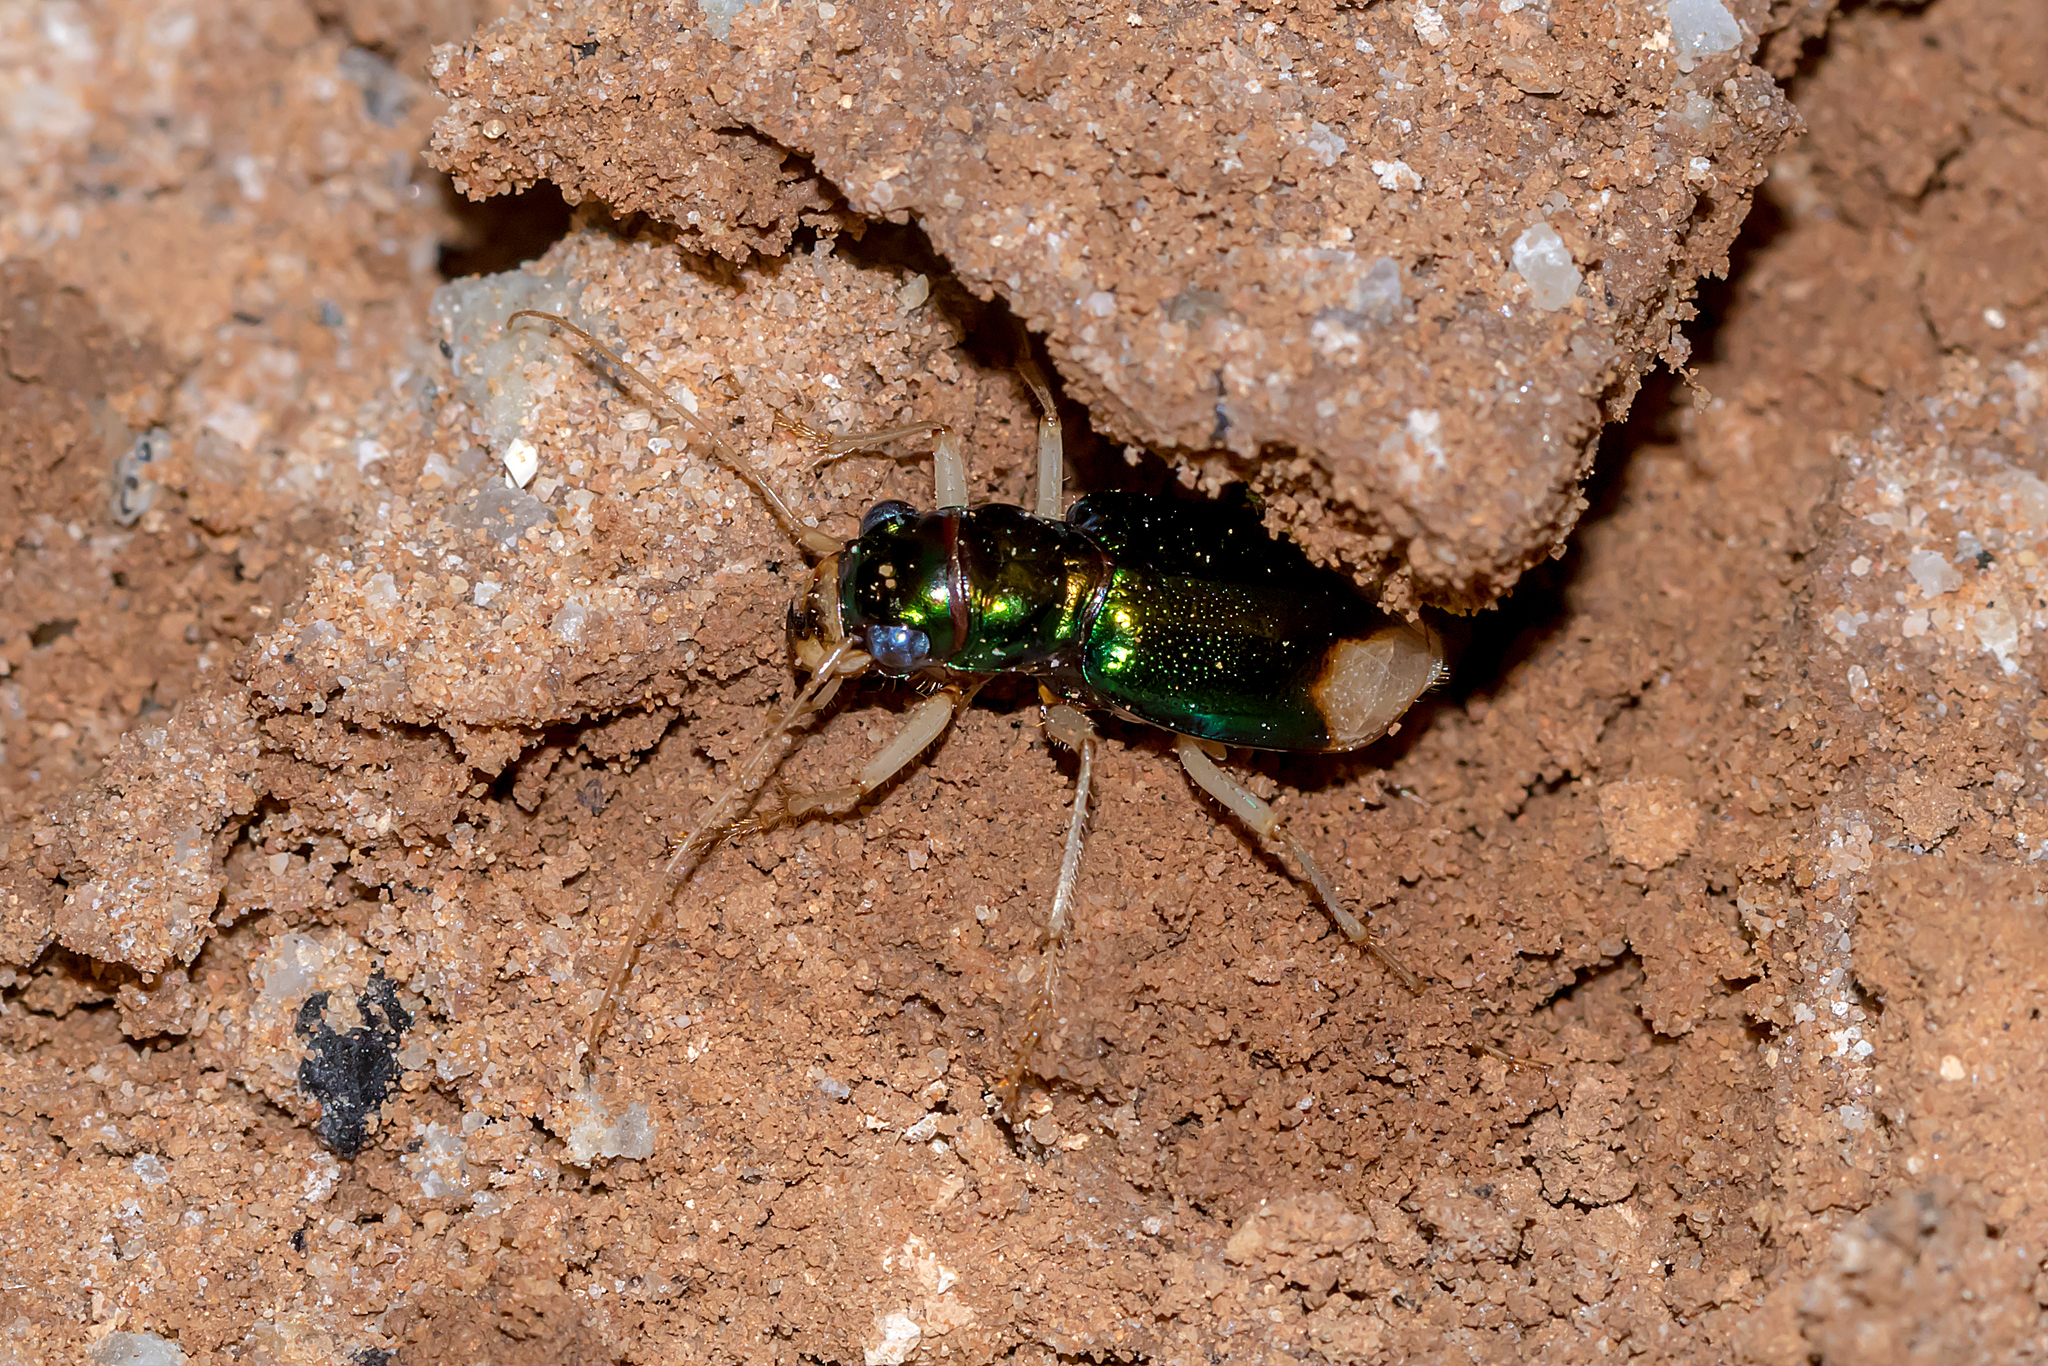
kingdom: Animalia
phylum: Arthropoda
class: Insecta
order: Coleoptera
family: Carabidae
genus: Pseudotetracha
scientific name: Pseudotetracha australis
